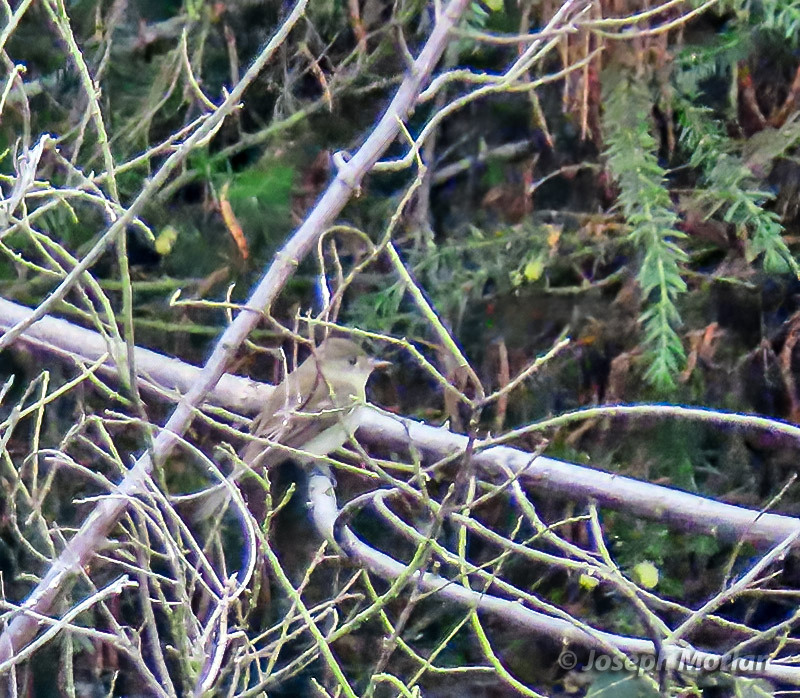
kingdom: Animalia
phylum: Chordata
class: Aves
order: Passeriformes
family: Tyrannidae
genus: Empidonax
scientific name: Empidonax traillii
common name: Willow flycatcher
